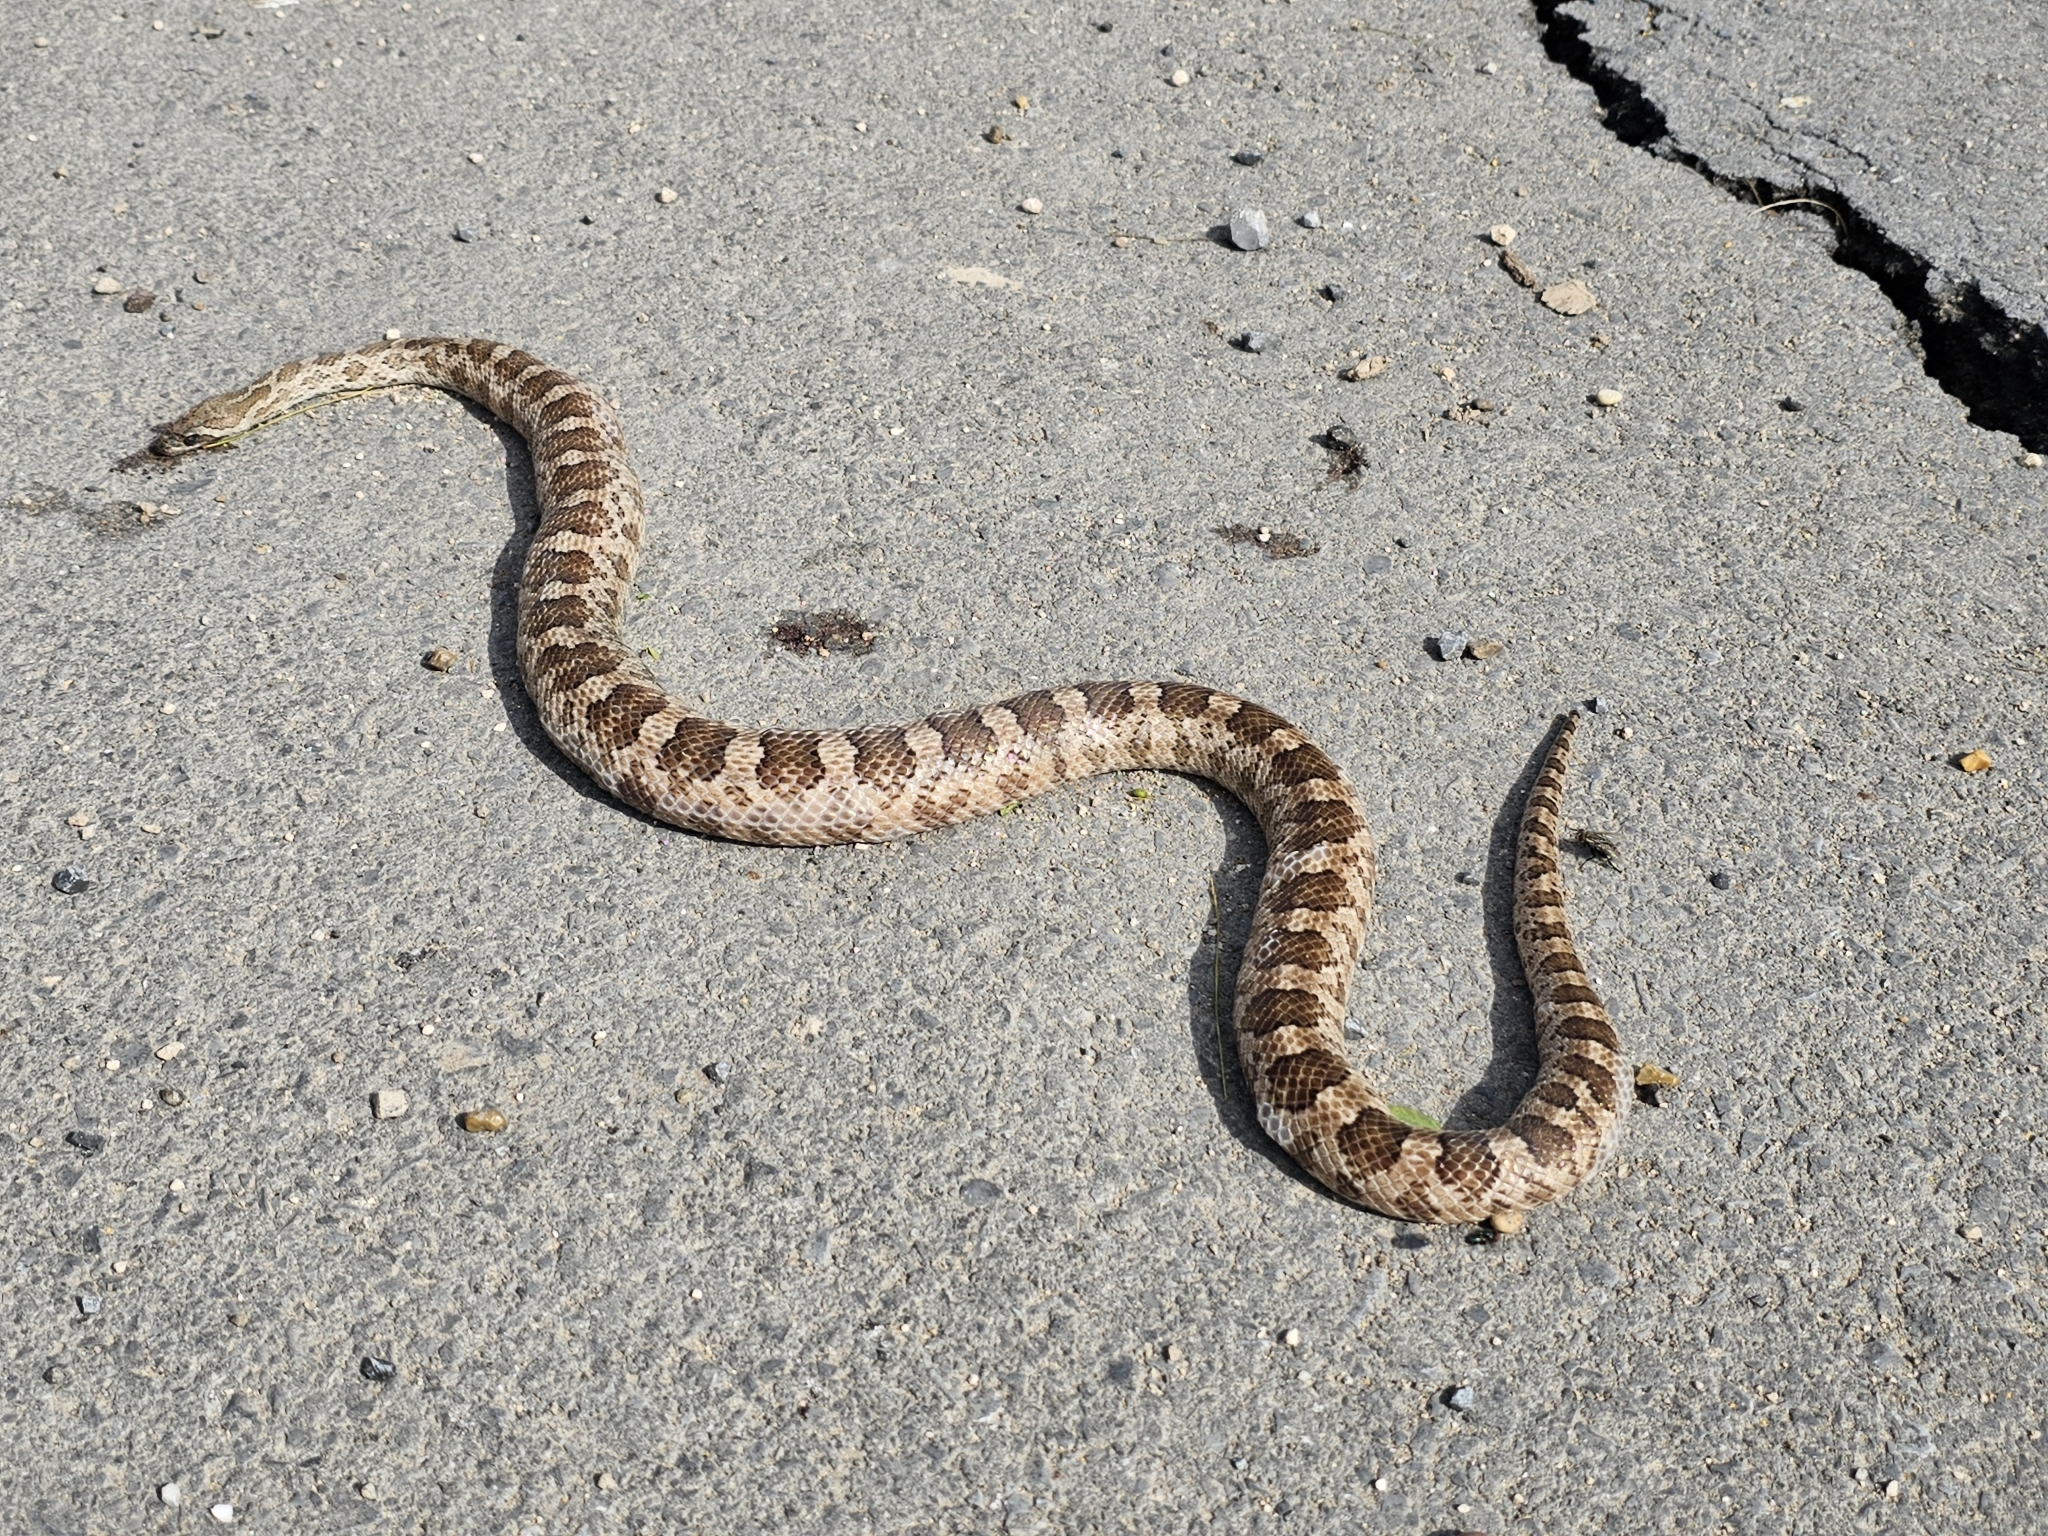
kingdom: Animalia
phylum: Chordata
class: Squamata
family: Colubridae
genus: Pantherophis
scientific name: Pantherophis emoryi
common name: Great plains rat snake
